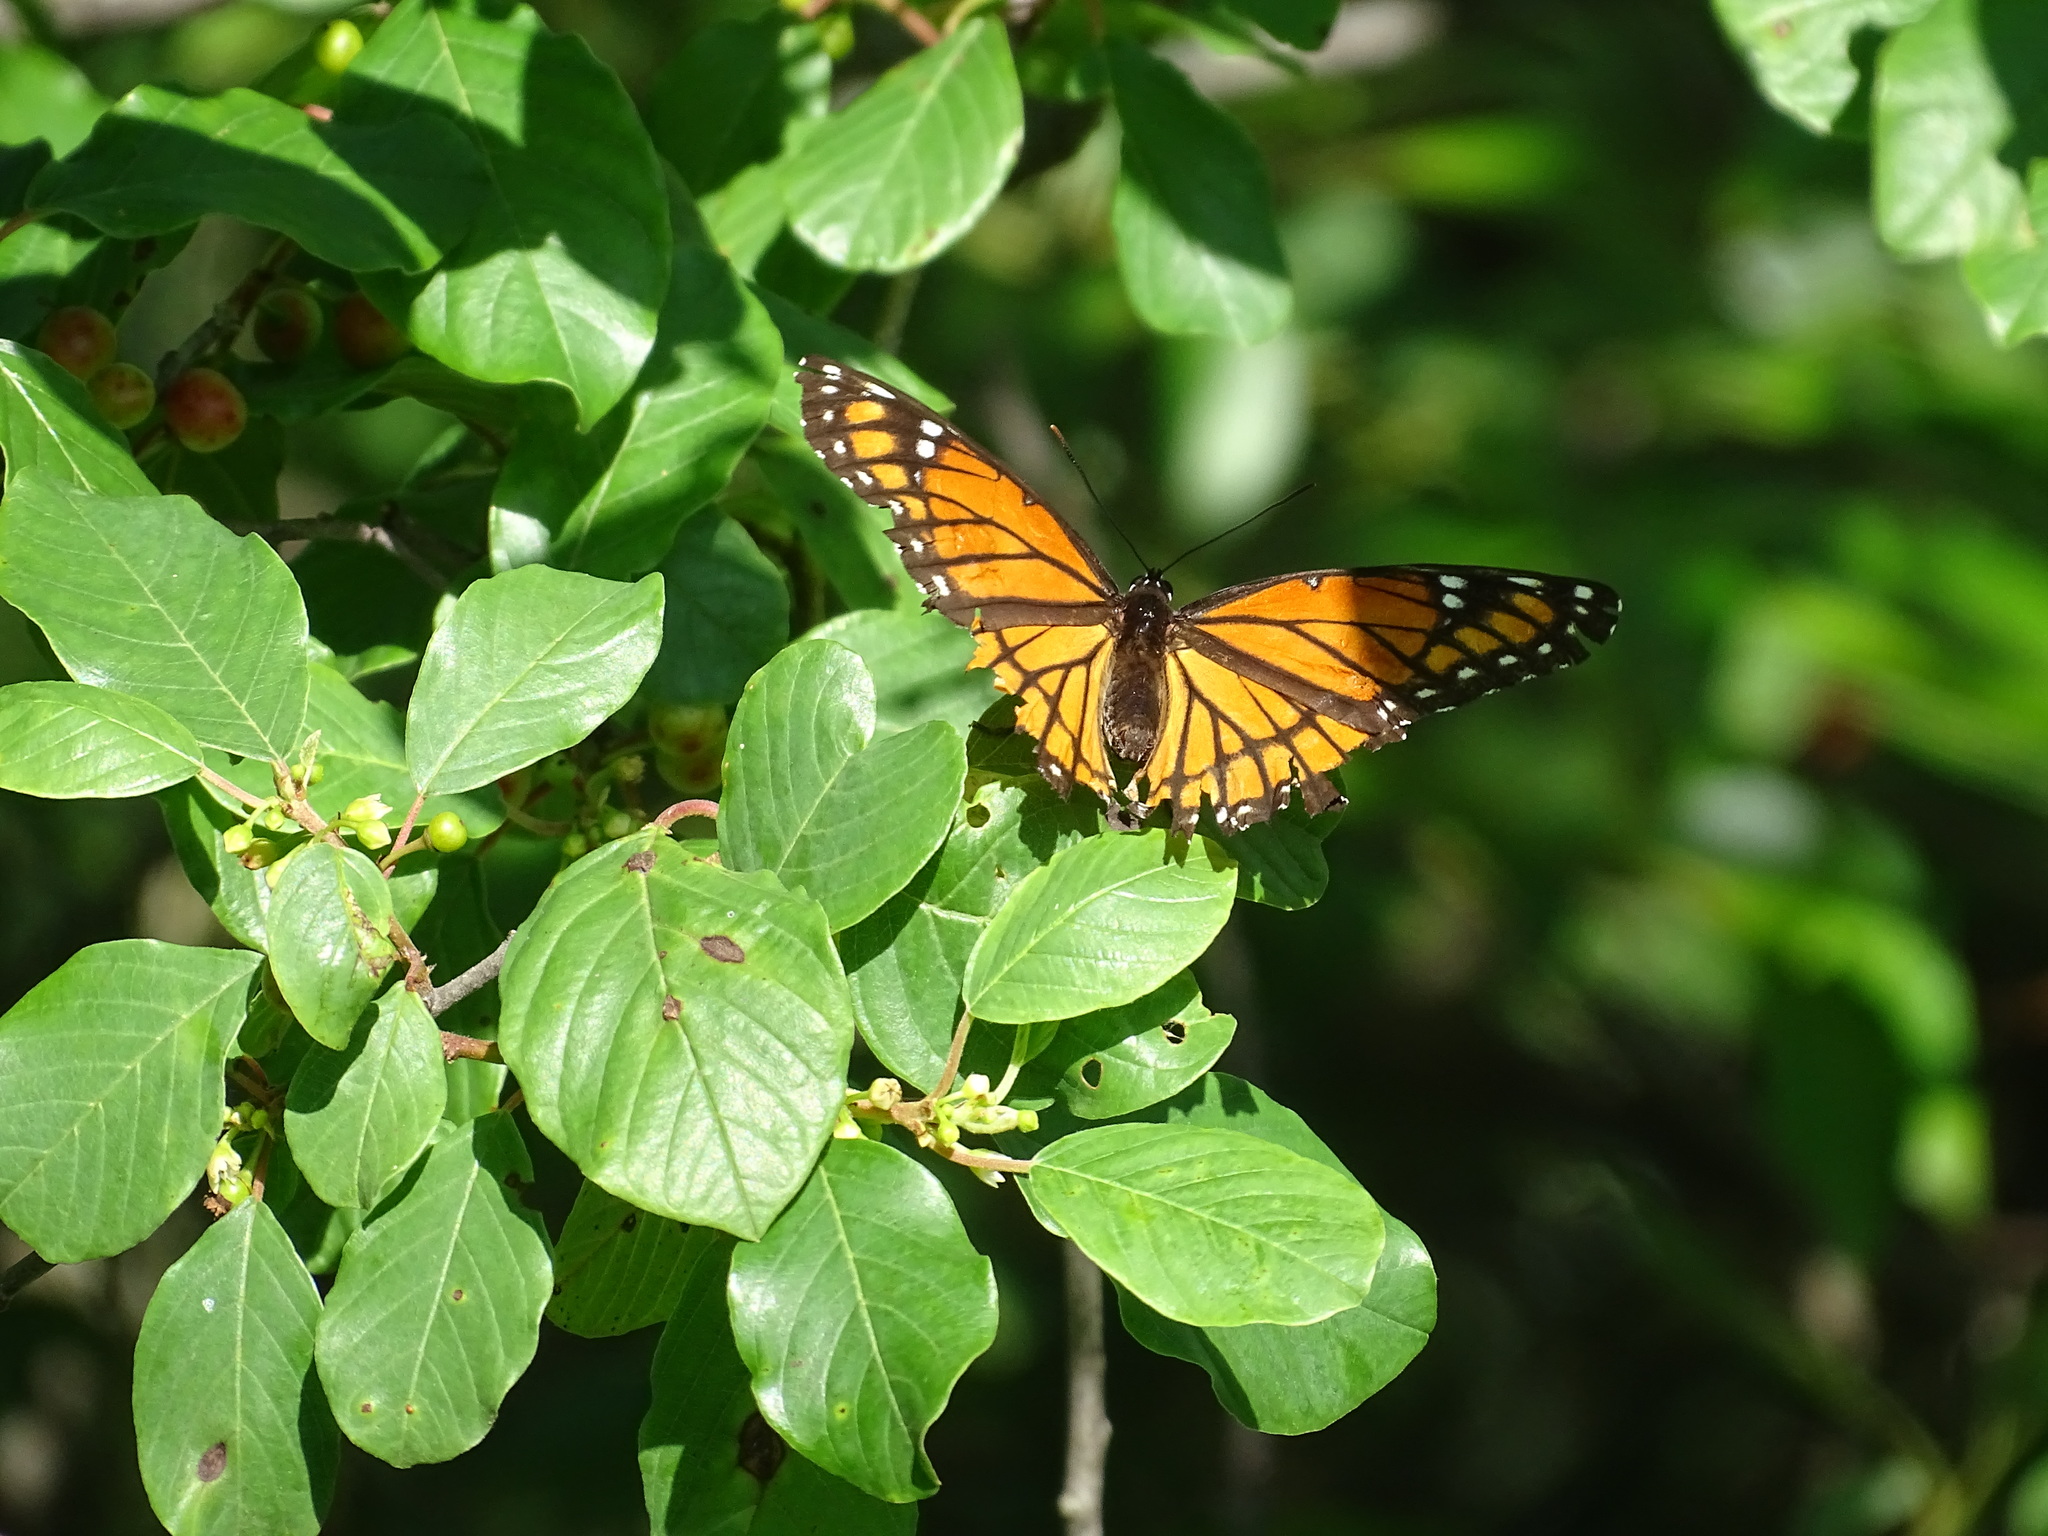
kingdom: Animalia
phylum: Arthropoda
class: Insecta
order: Lepidoptera
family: Nymphalidae
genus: Limenitis
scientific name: Limenitis archippus
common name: Viceroy
